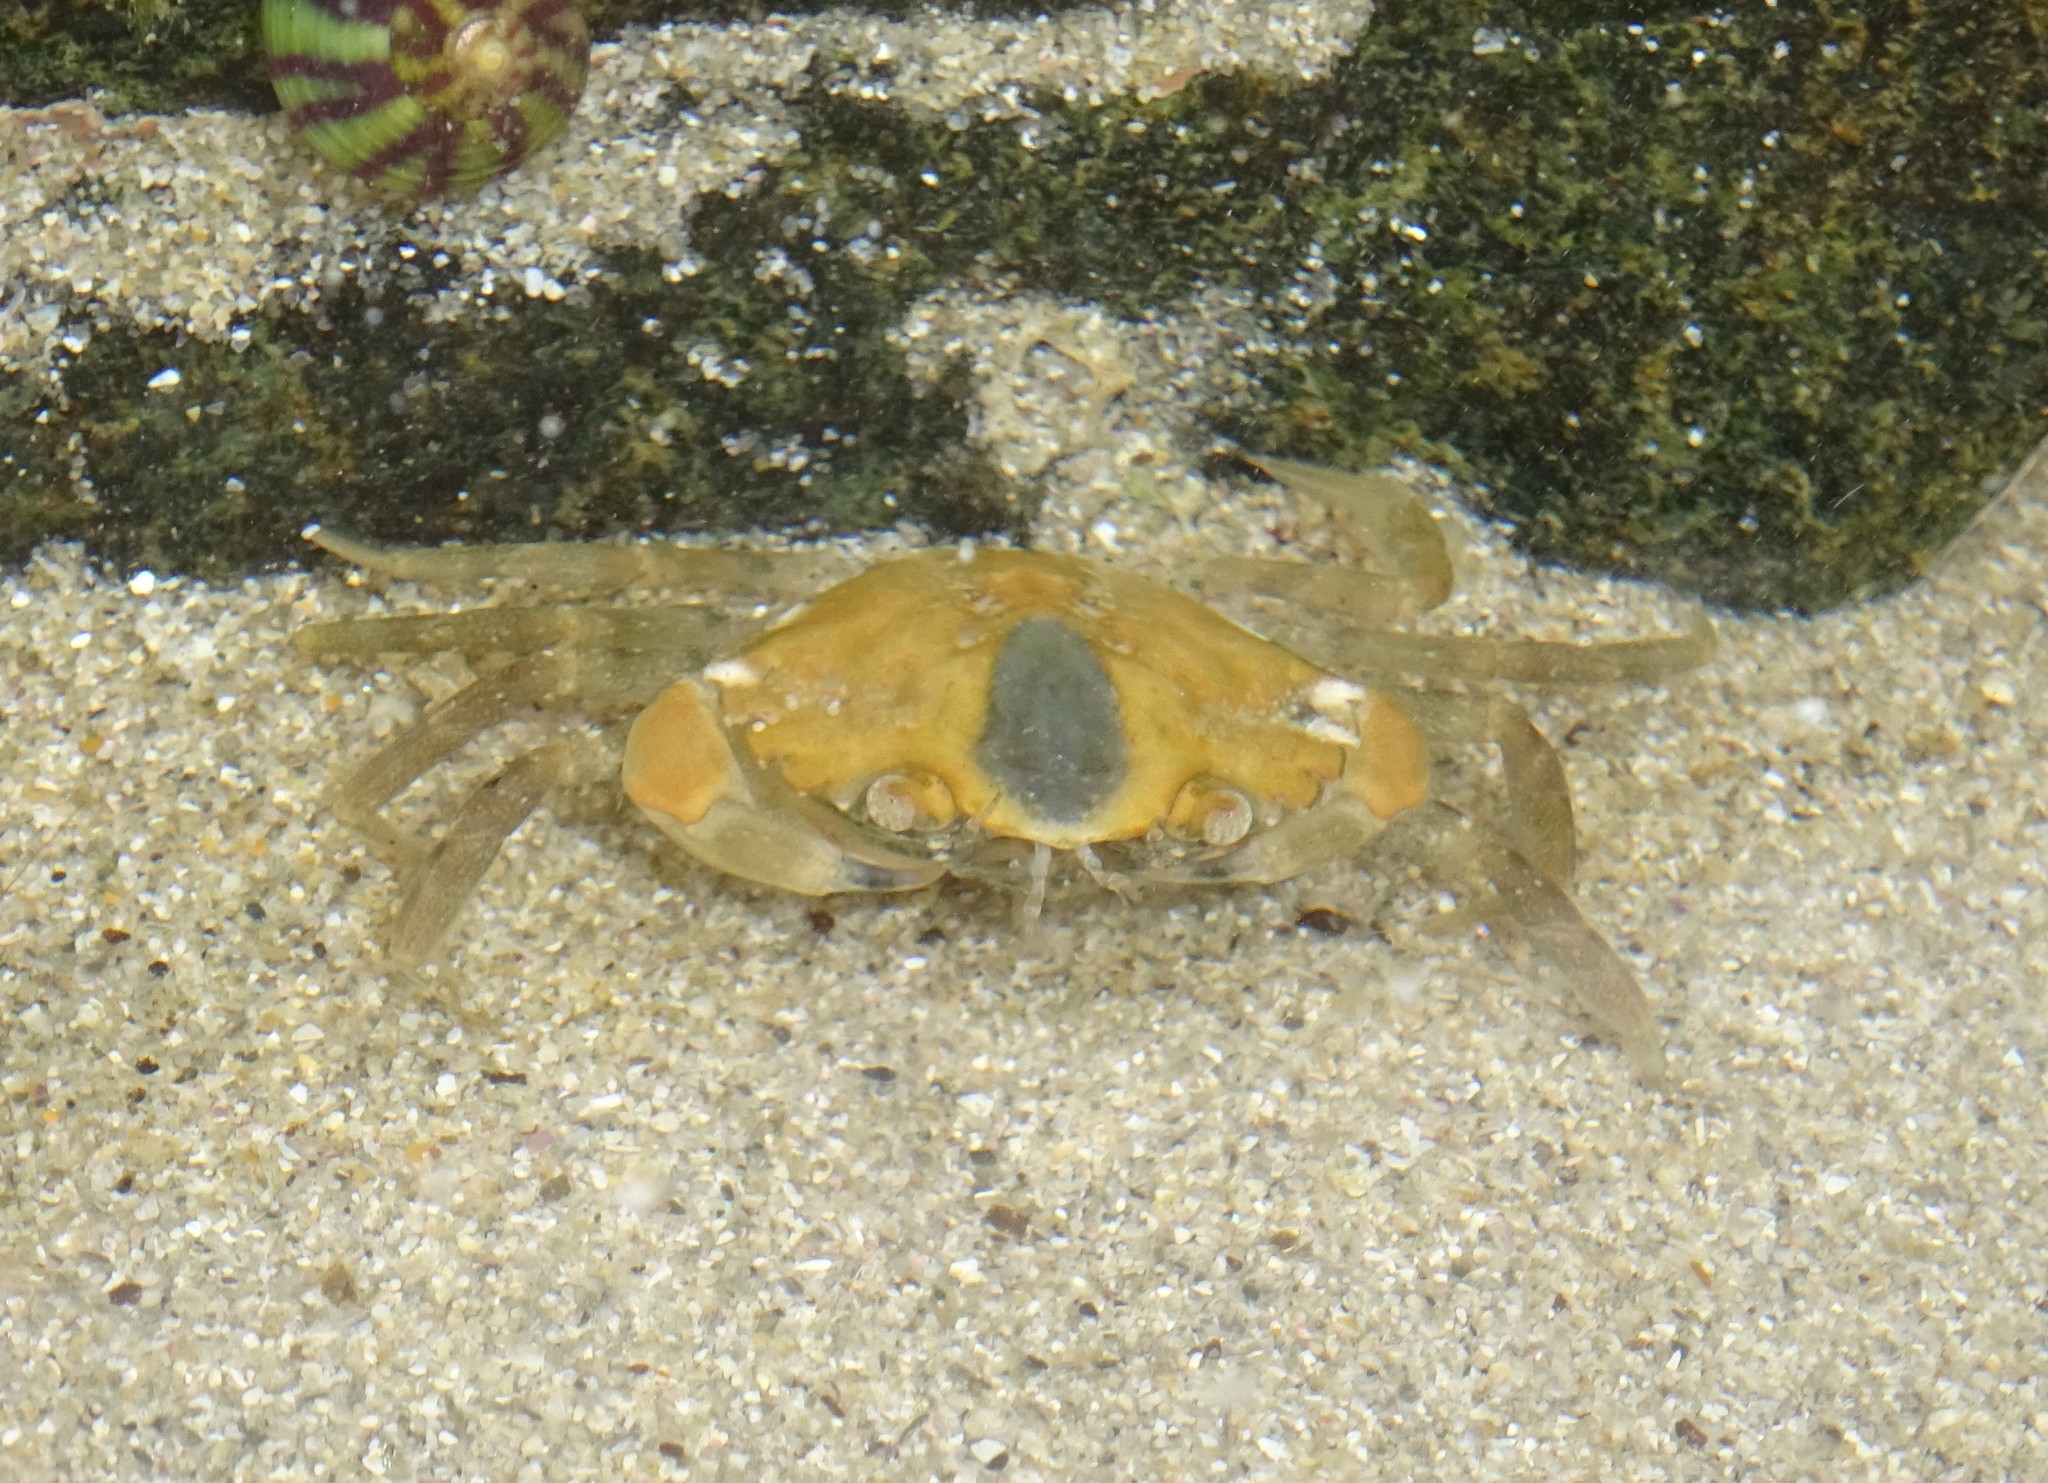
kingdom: Animalia
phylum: Arthropoda
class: Malacostraca
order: Decapoda
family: Carcinidae
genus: Carcinus
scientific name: Carcinus maenas
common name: European green crab
